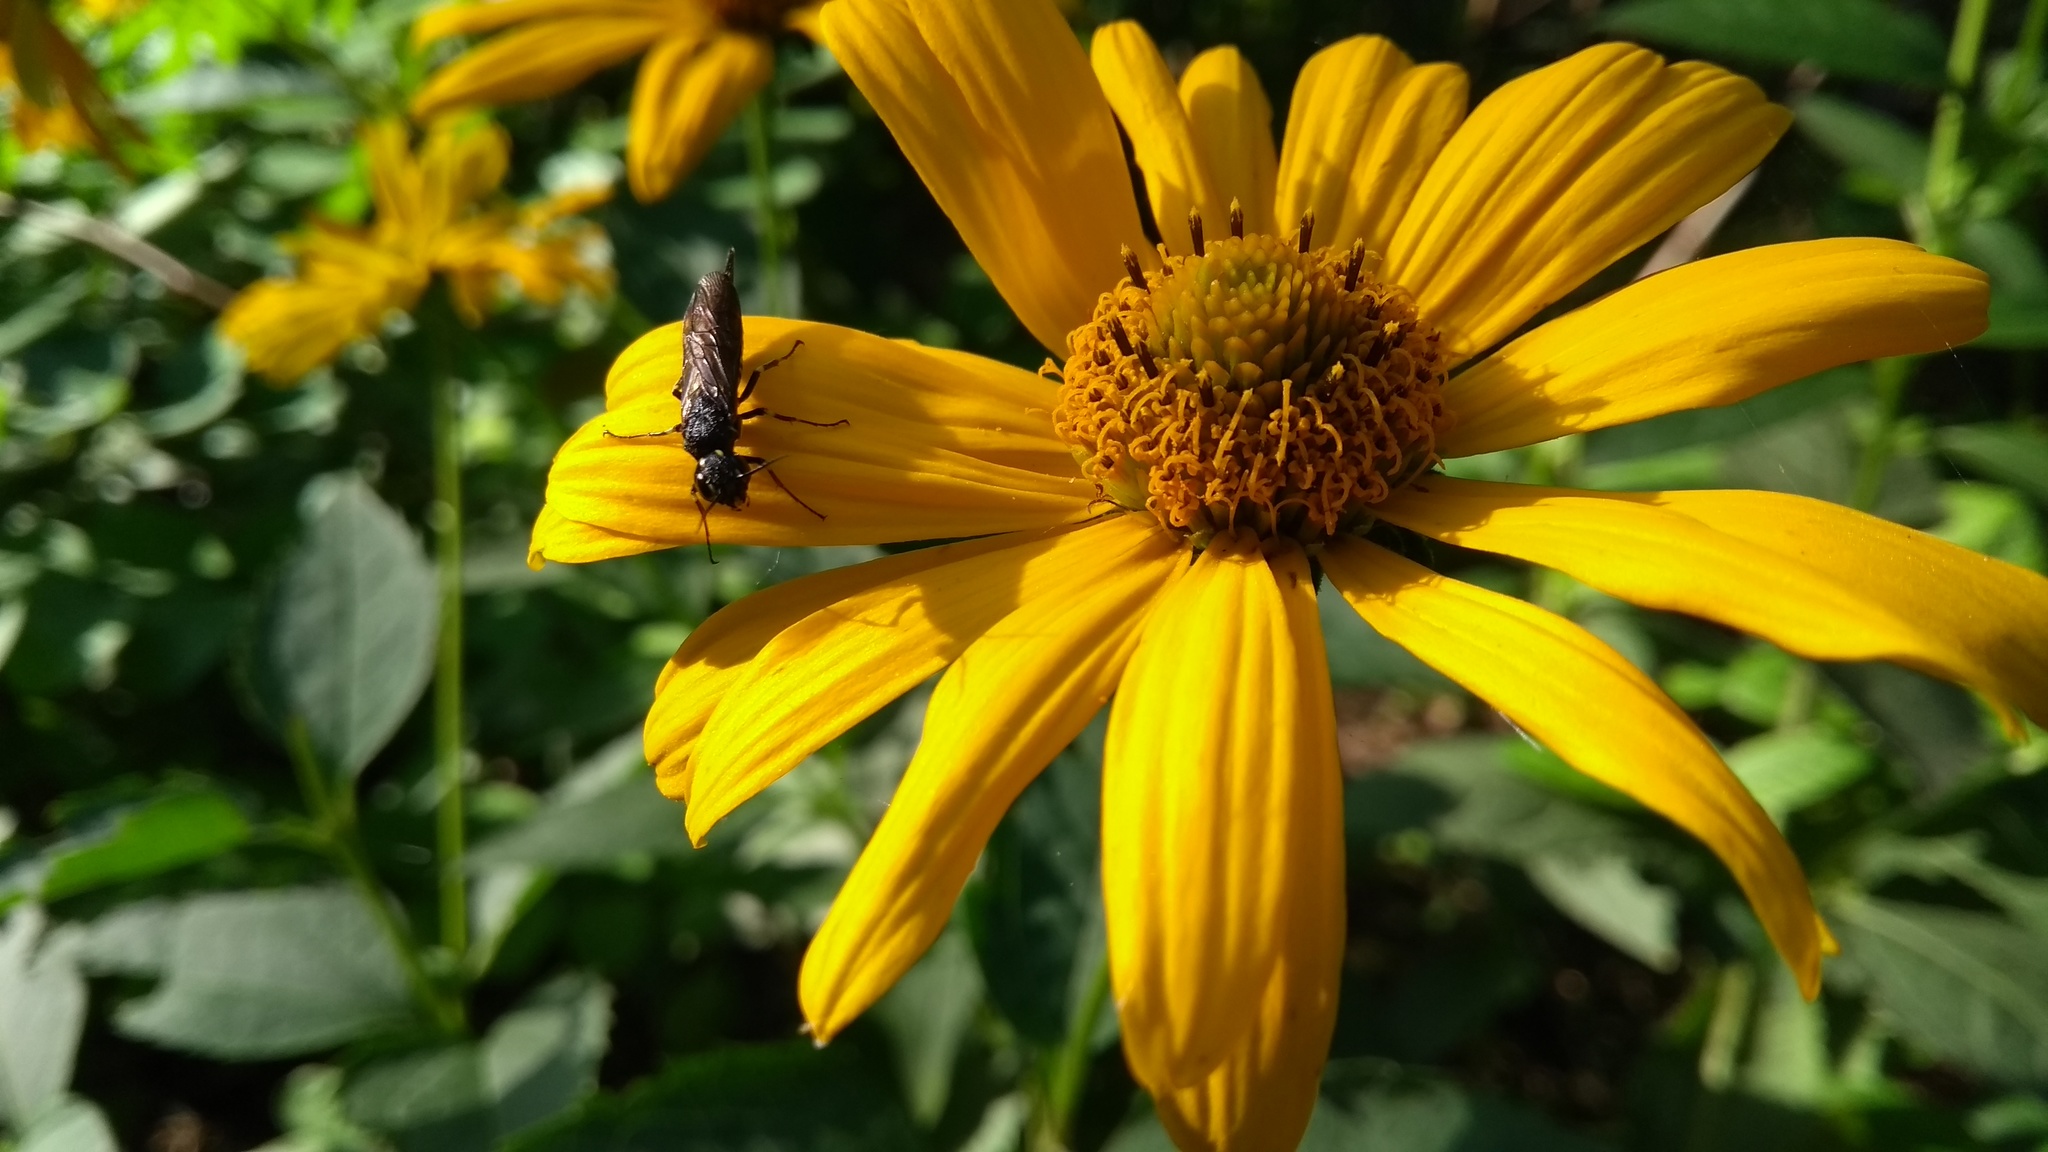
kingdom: Animalia
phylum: Arthropoda
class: Insecta
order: Hymenoptera
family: Xiphydriidae
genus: Xiphydria
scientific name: Xiphydria longicollis
